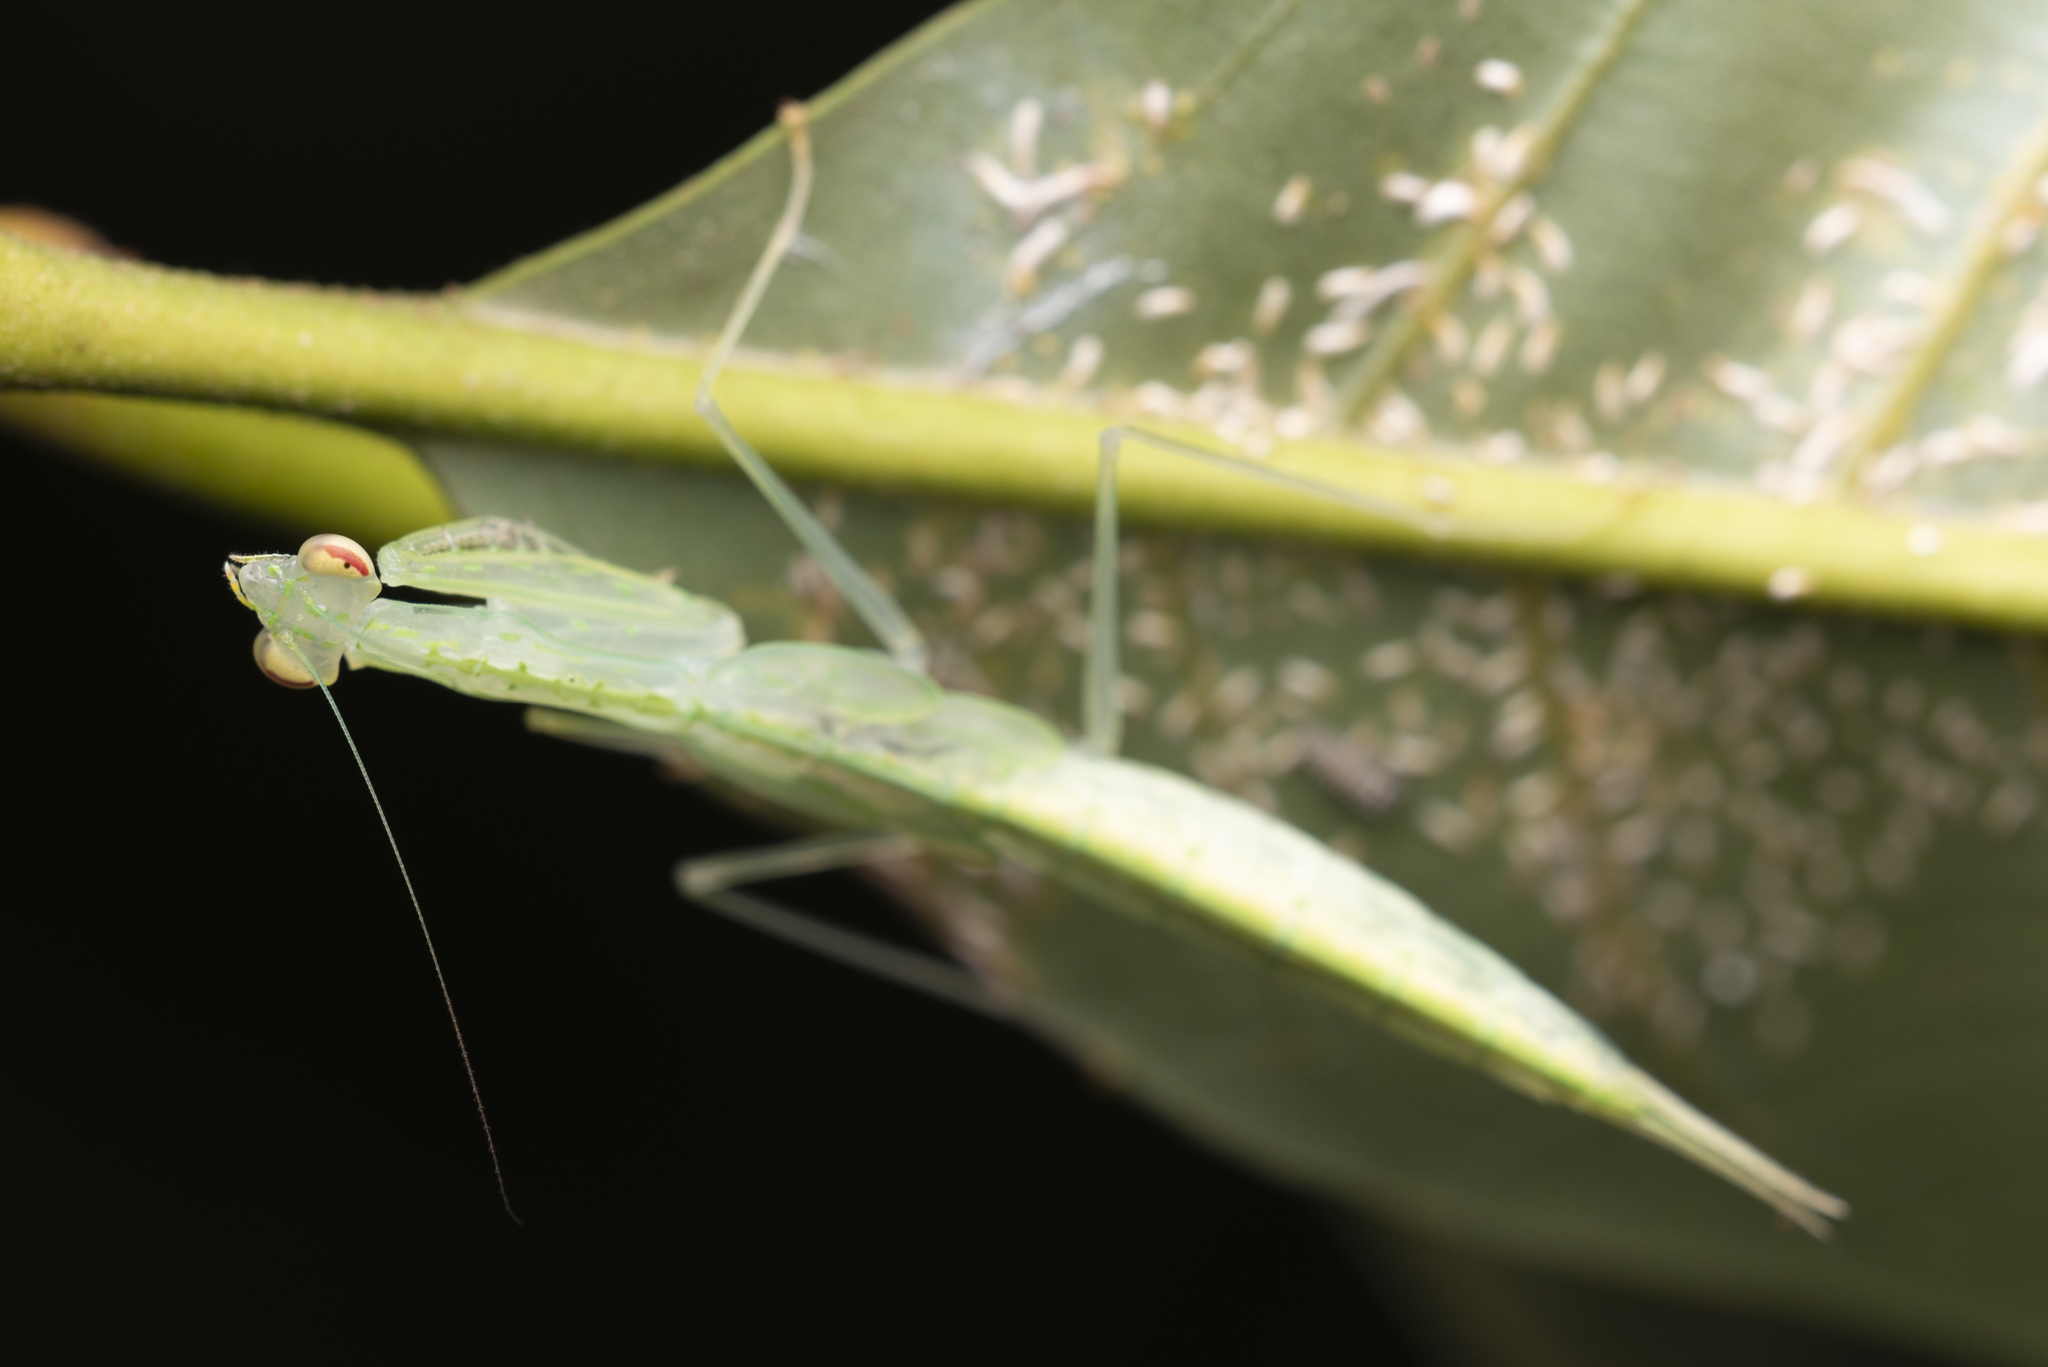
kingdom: Animalia
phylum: Arthropoda
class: Insecta
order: Mantodea
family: Nanomantidae
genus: Sinomantis
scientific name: Sinomantis denticulata
